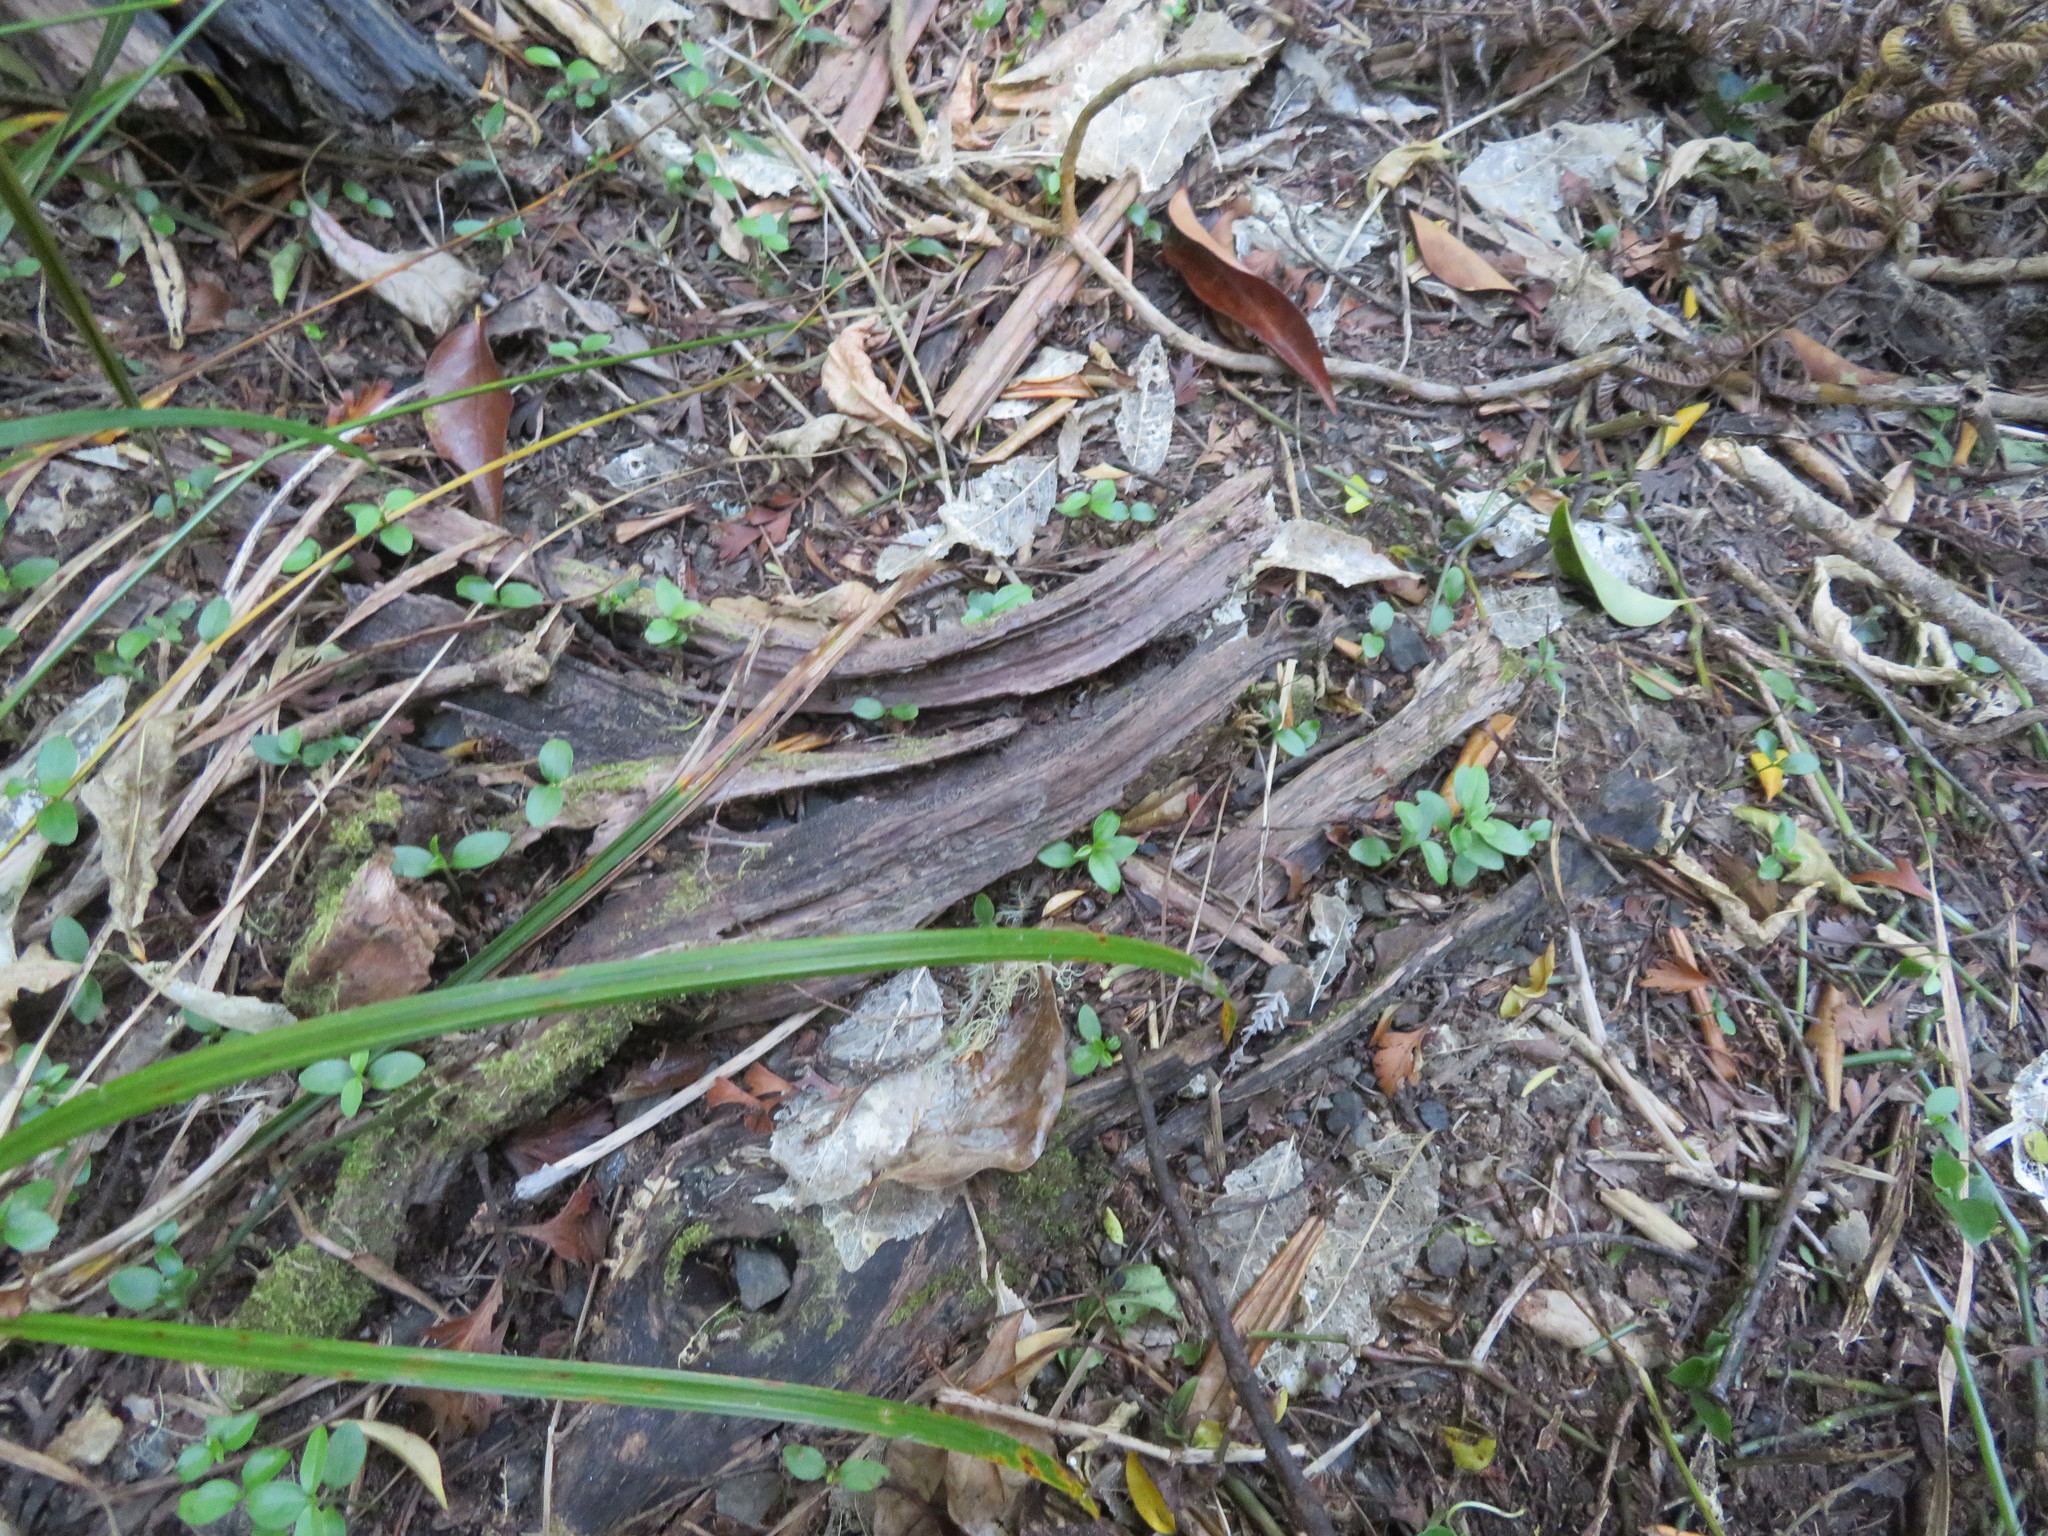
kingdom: Plantae
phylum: Tracheophyta
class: Magnoliopsida
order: Lamiales
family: Oleaceae
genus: Ligustrum
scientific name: Ligustrum lucidum
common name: Glossy privet
